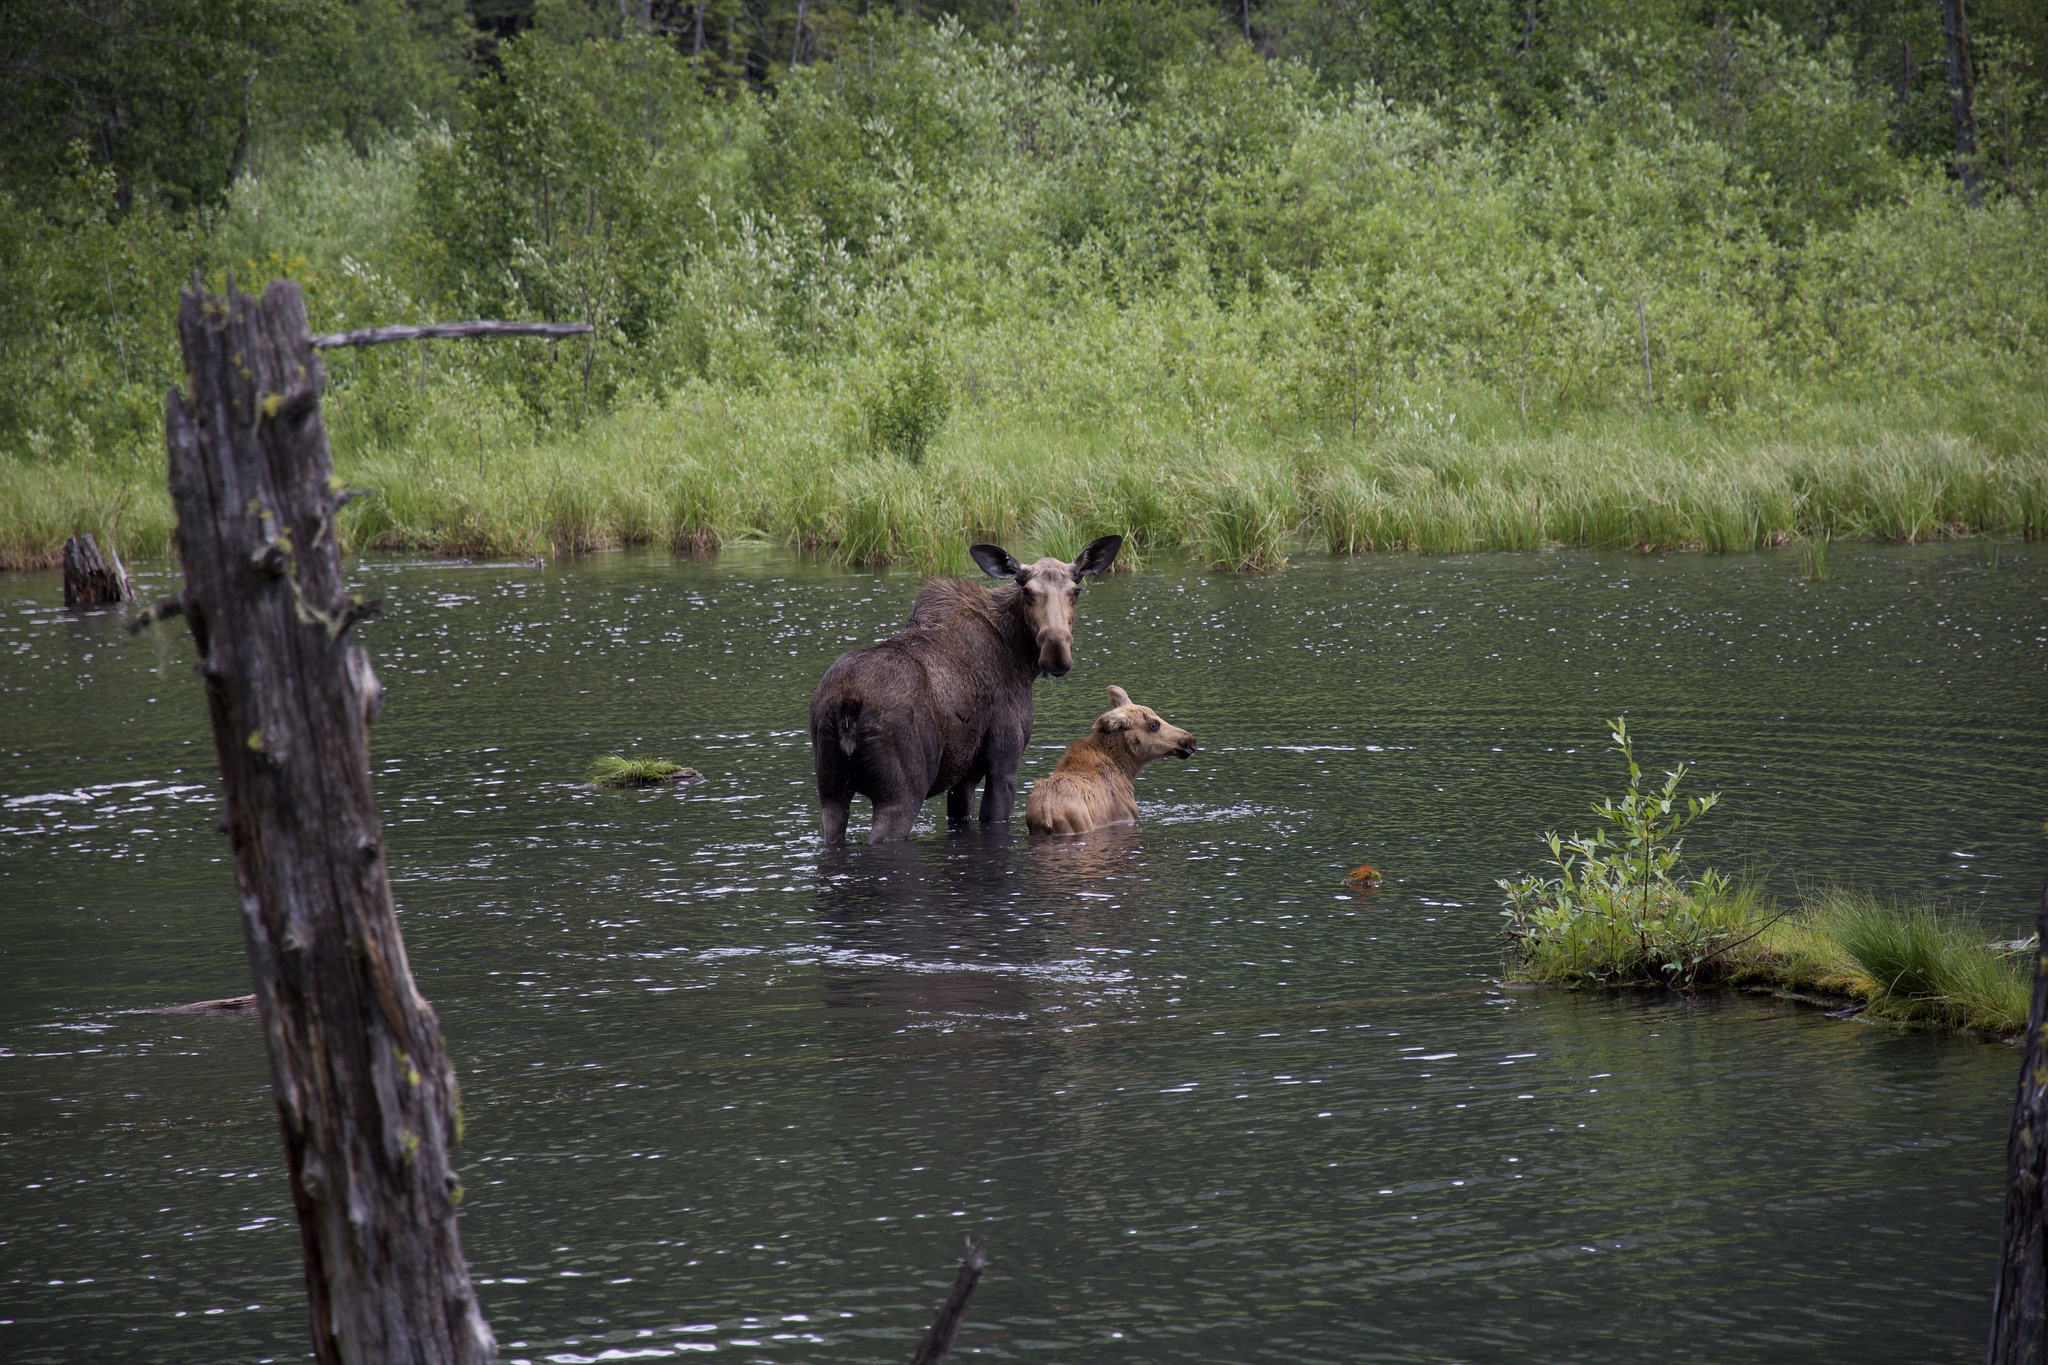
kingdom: Animalia
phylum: Chordata
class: Mammalia
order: Artiodactyla
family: Cervidae
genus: Alces
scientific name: Alces alces
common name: Moose
